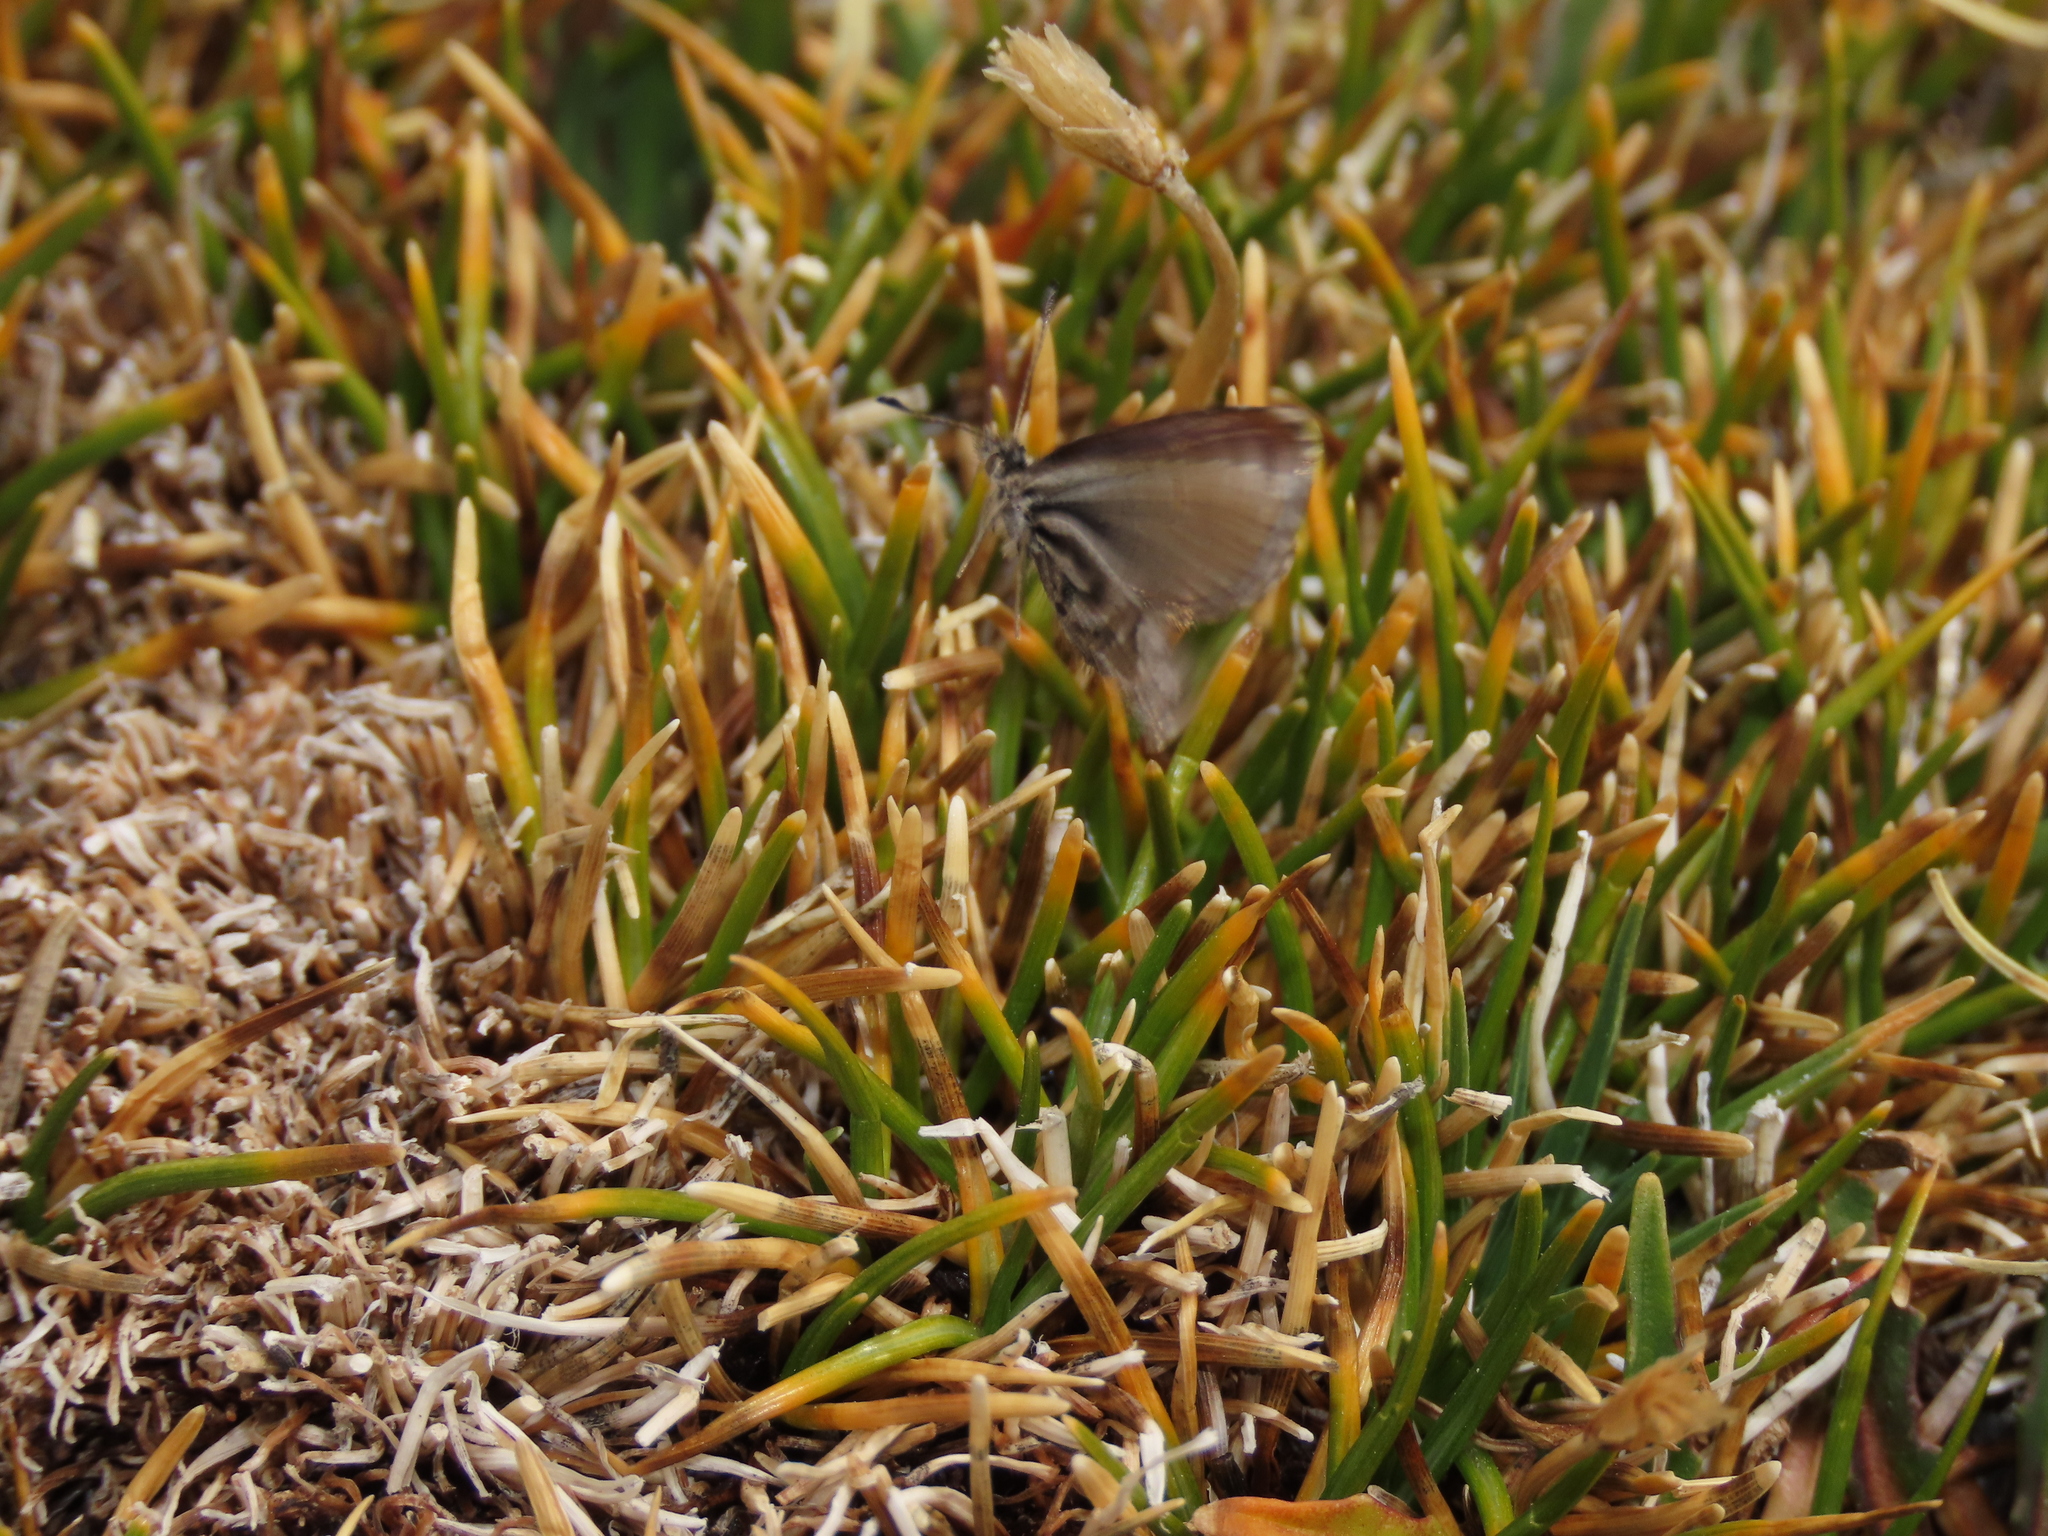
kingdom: Animalia
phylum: Arthropoda
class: Insecta
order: Lepidoptera
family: Lycaenidae
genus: Itylos
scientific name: Itylos titicaca
